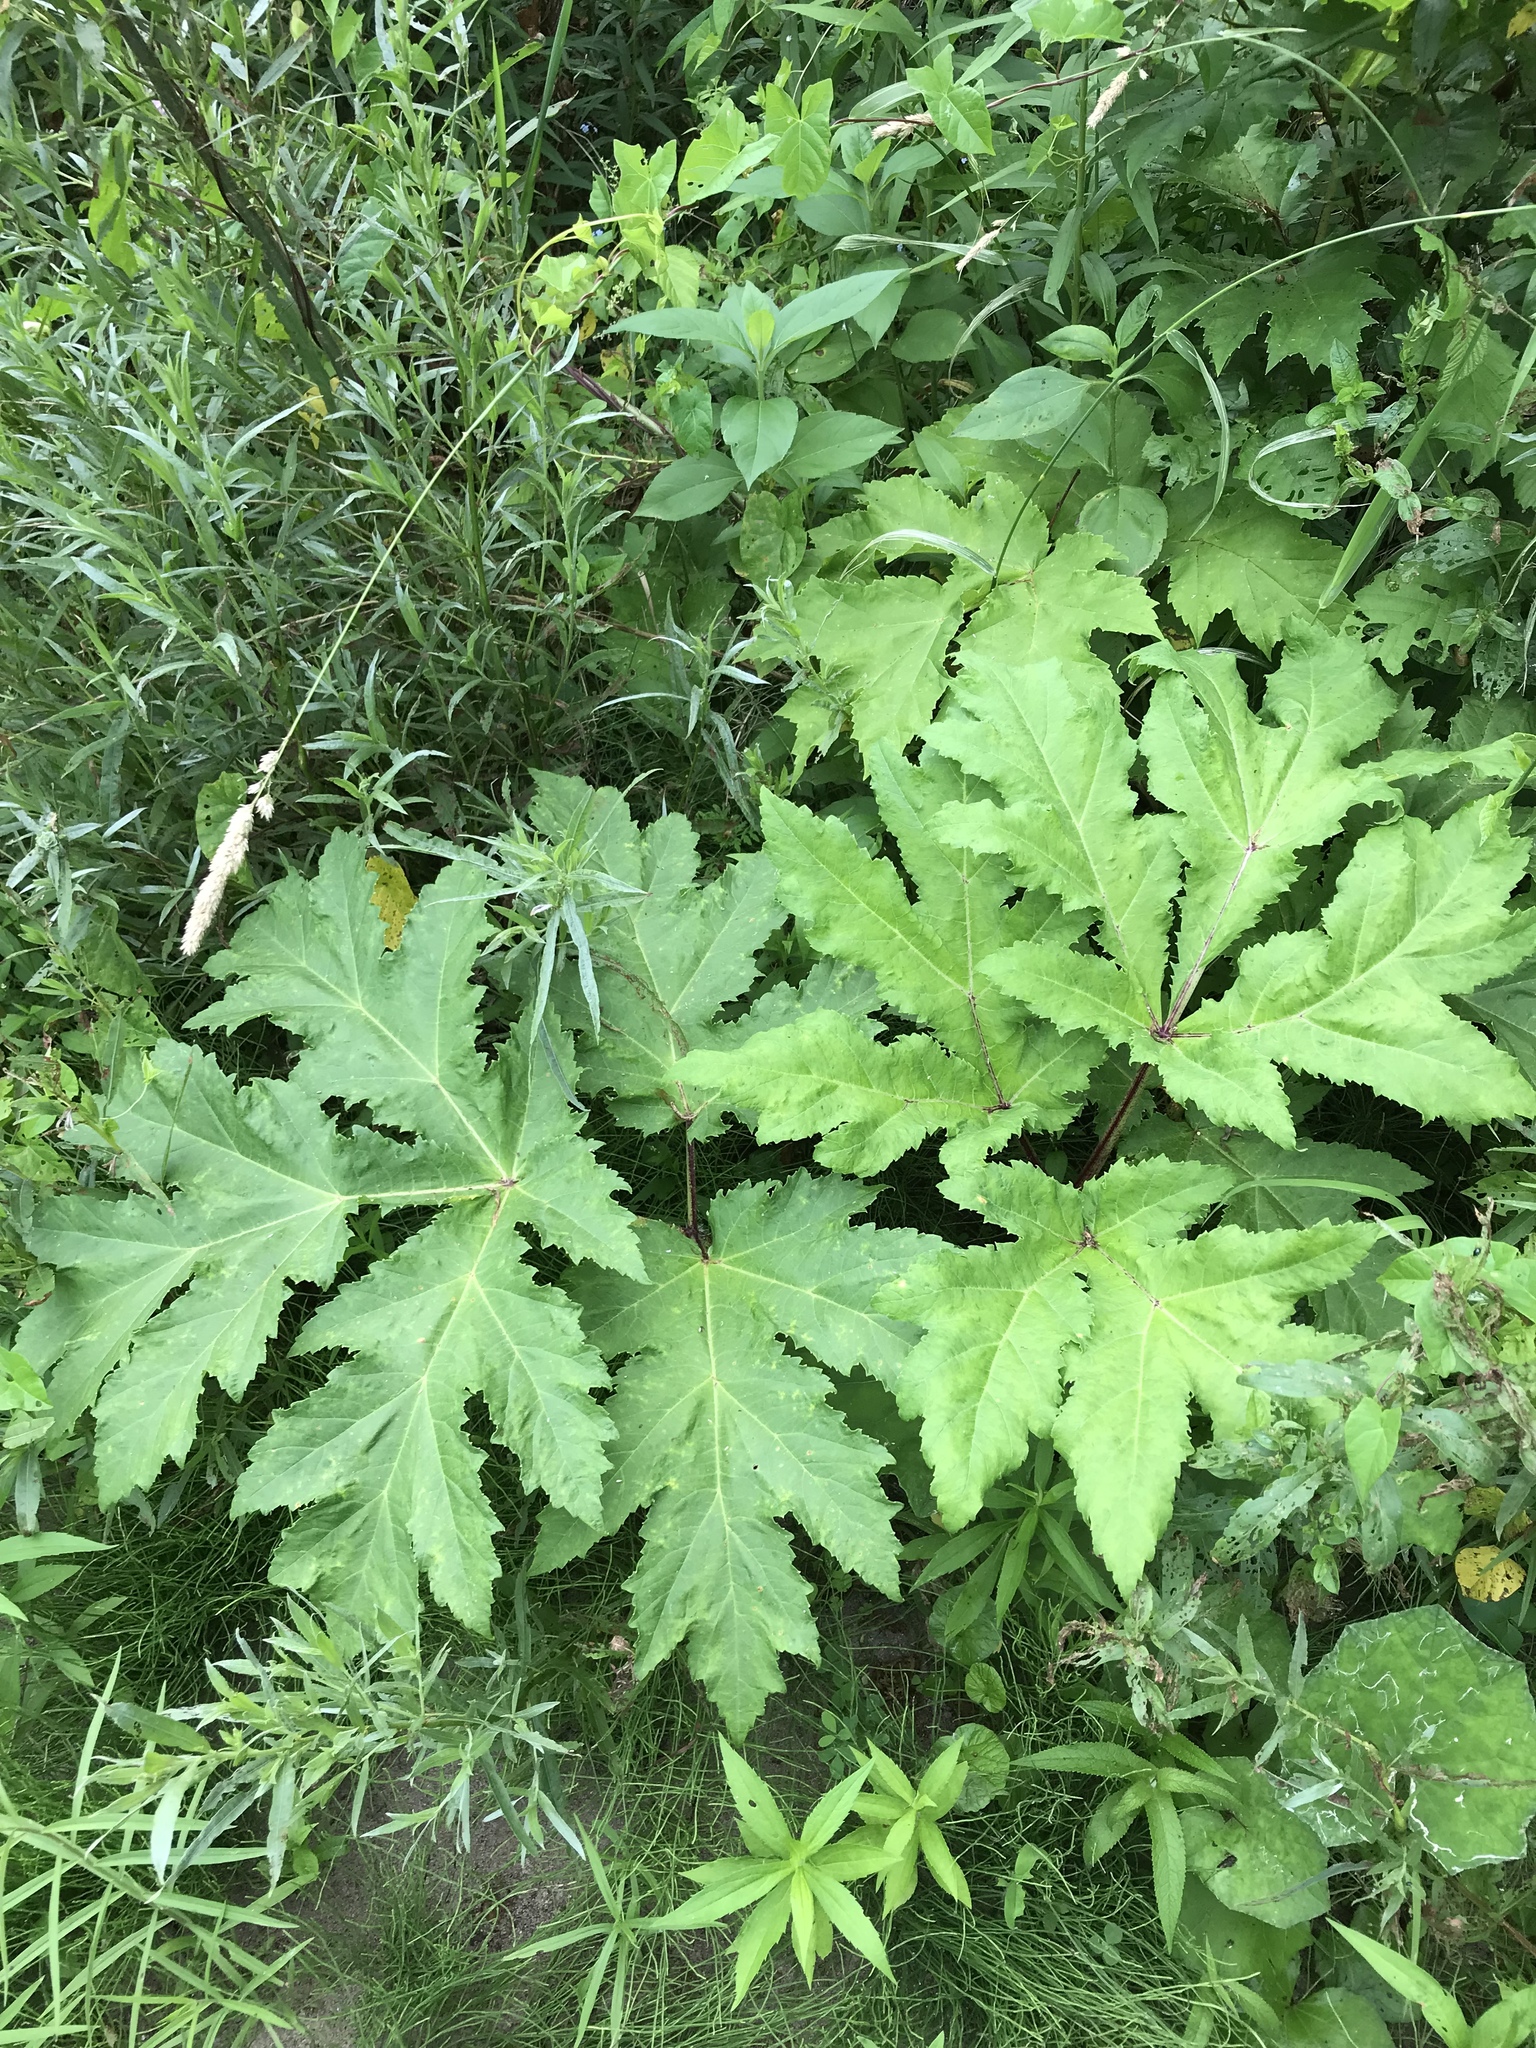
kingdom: Plantae
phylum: Tracheophyta
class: Magnoliopsida
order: Apiales
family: Apiaceae
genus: Heracleum
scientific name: Heracleum mantegazzianum
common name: Giant hogweed
